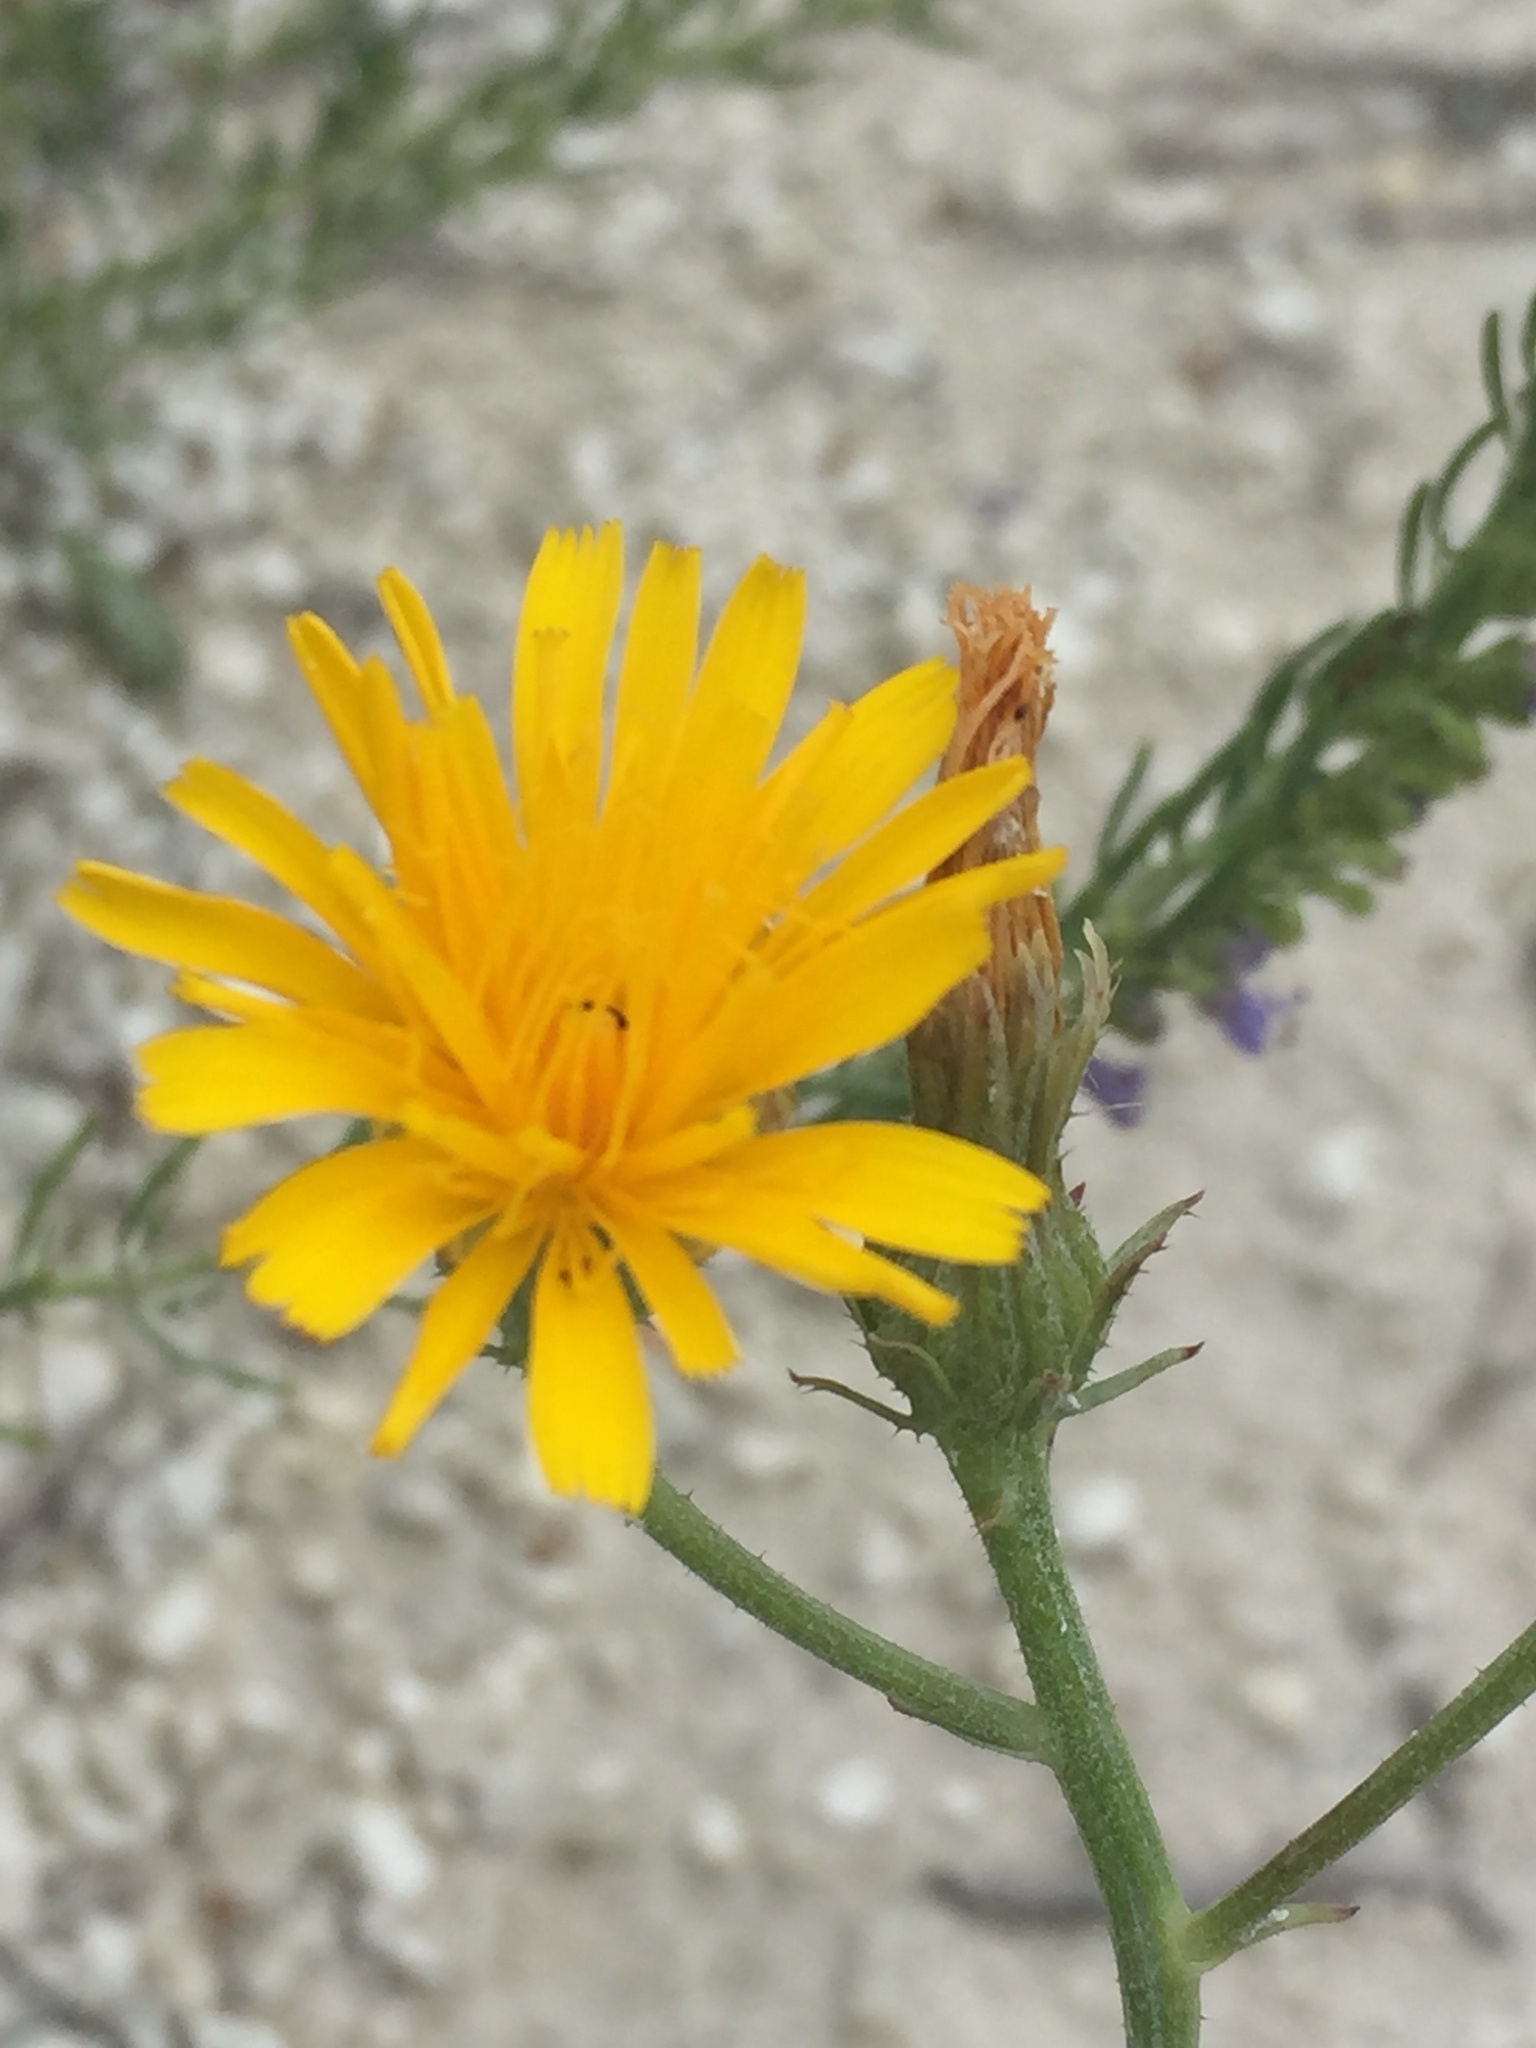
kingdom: Plantae
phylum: Tracheophyta
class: Magnoliopsida
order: Asterales
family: Asteraceae
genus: Picris
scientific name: Picris hieracioides
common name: Hawkweed oxtongue
